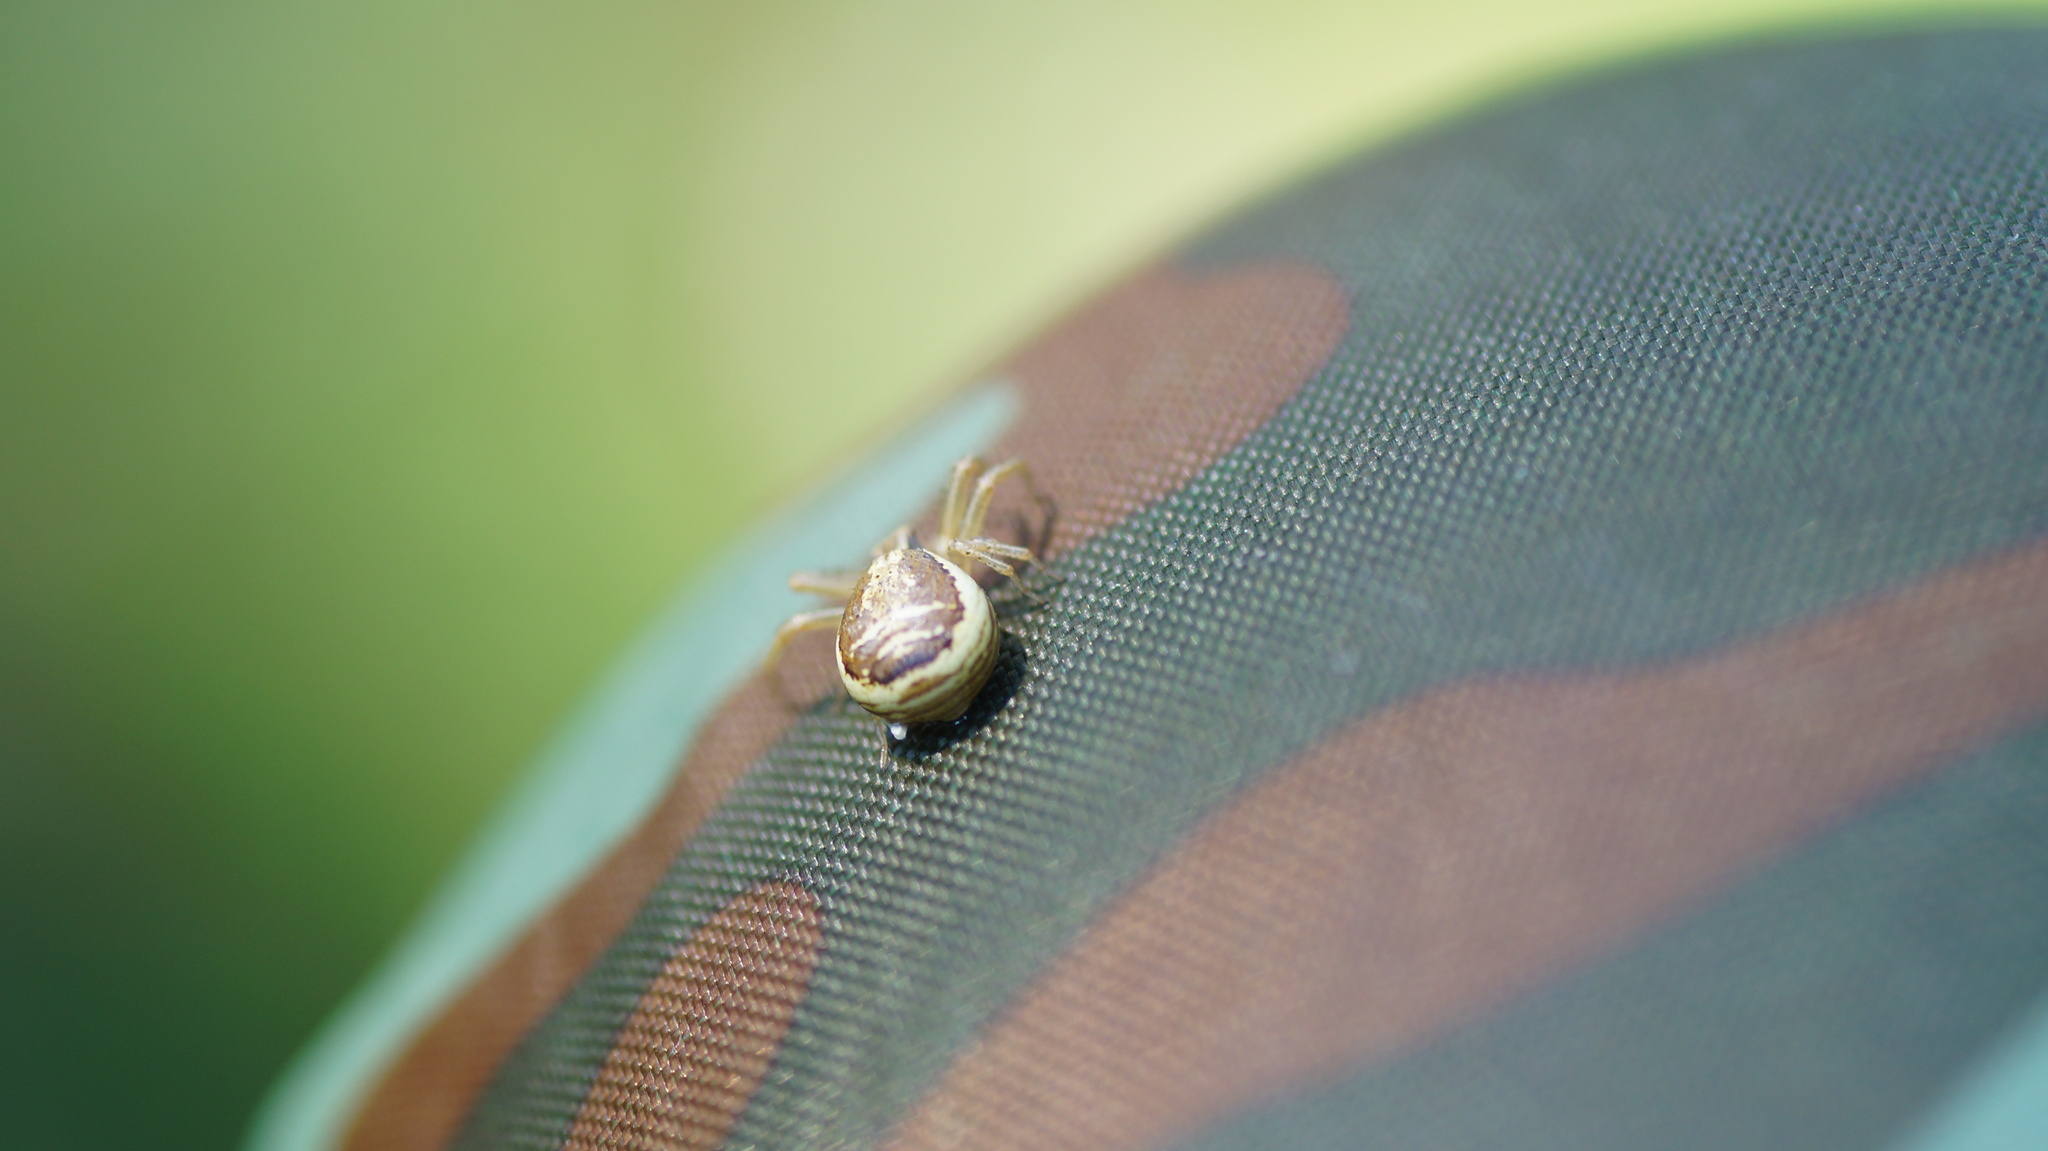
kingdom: Animalia
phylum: Arthropoda
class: Arachnida
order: Araneae
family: Thomisidae
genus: Xysticus
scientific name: Xysticus ulmi
